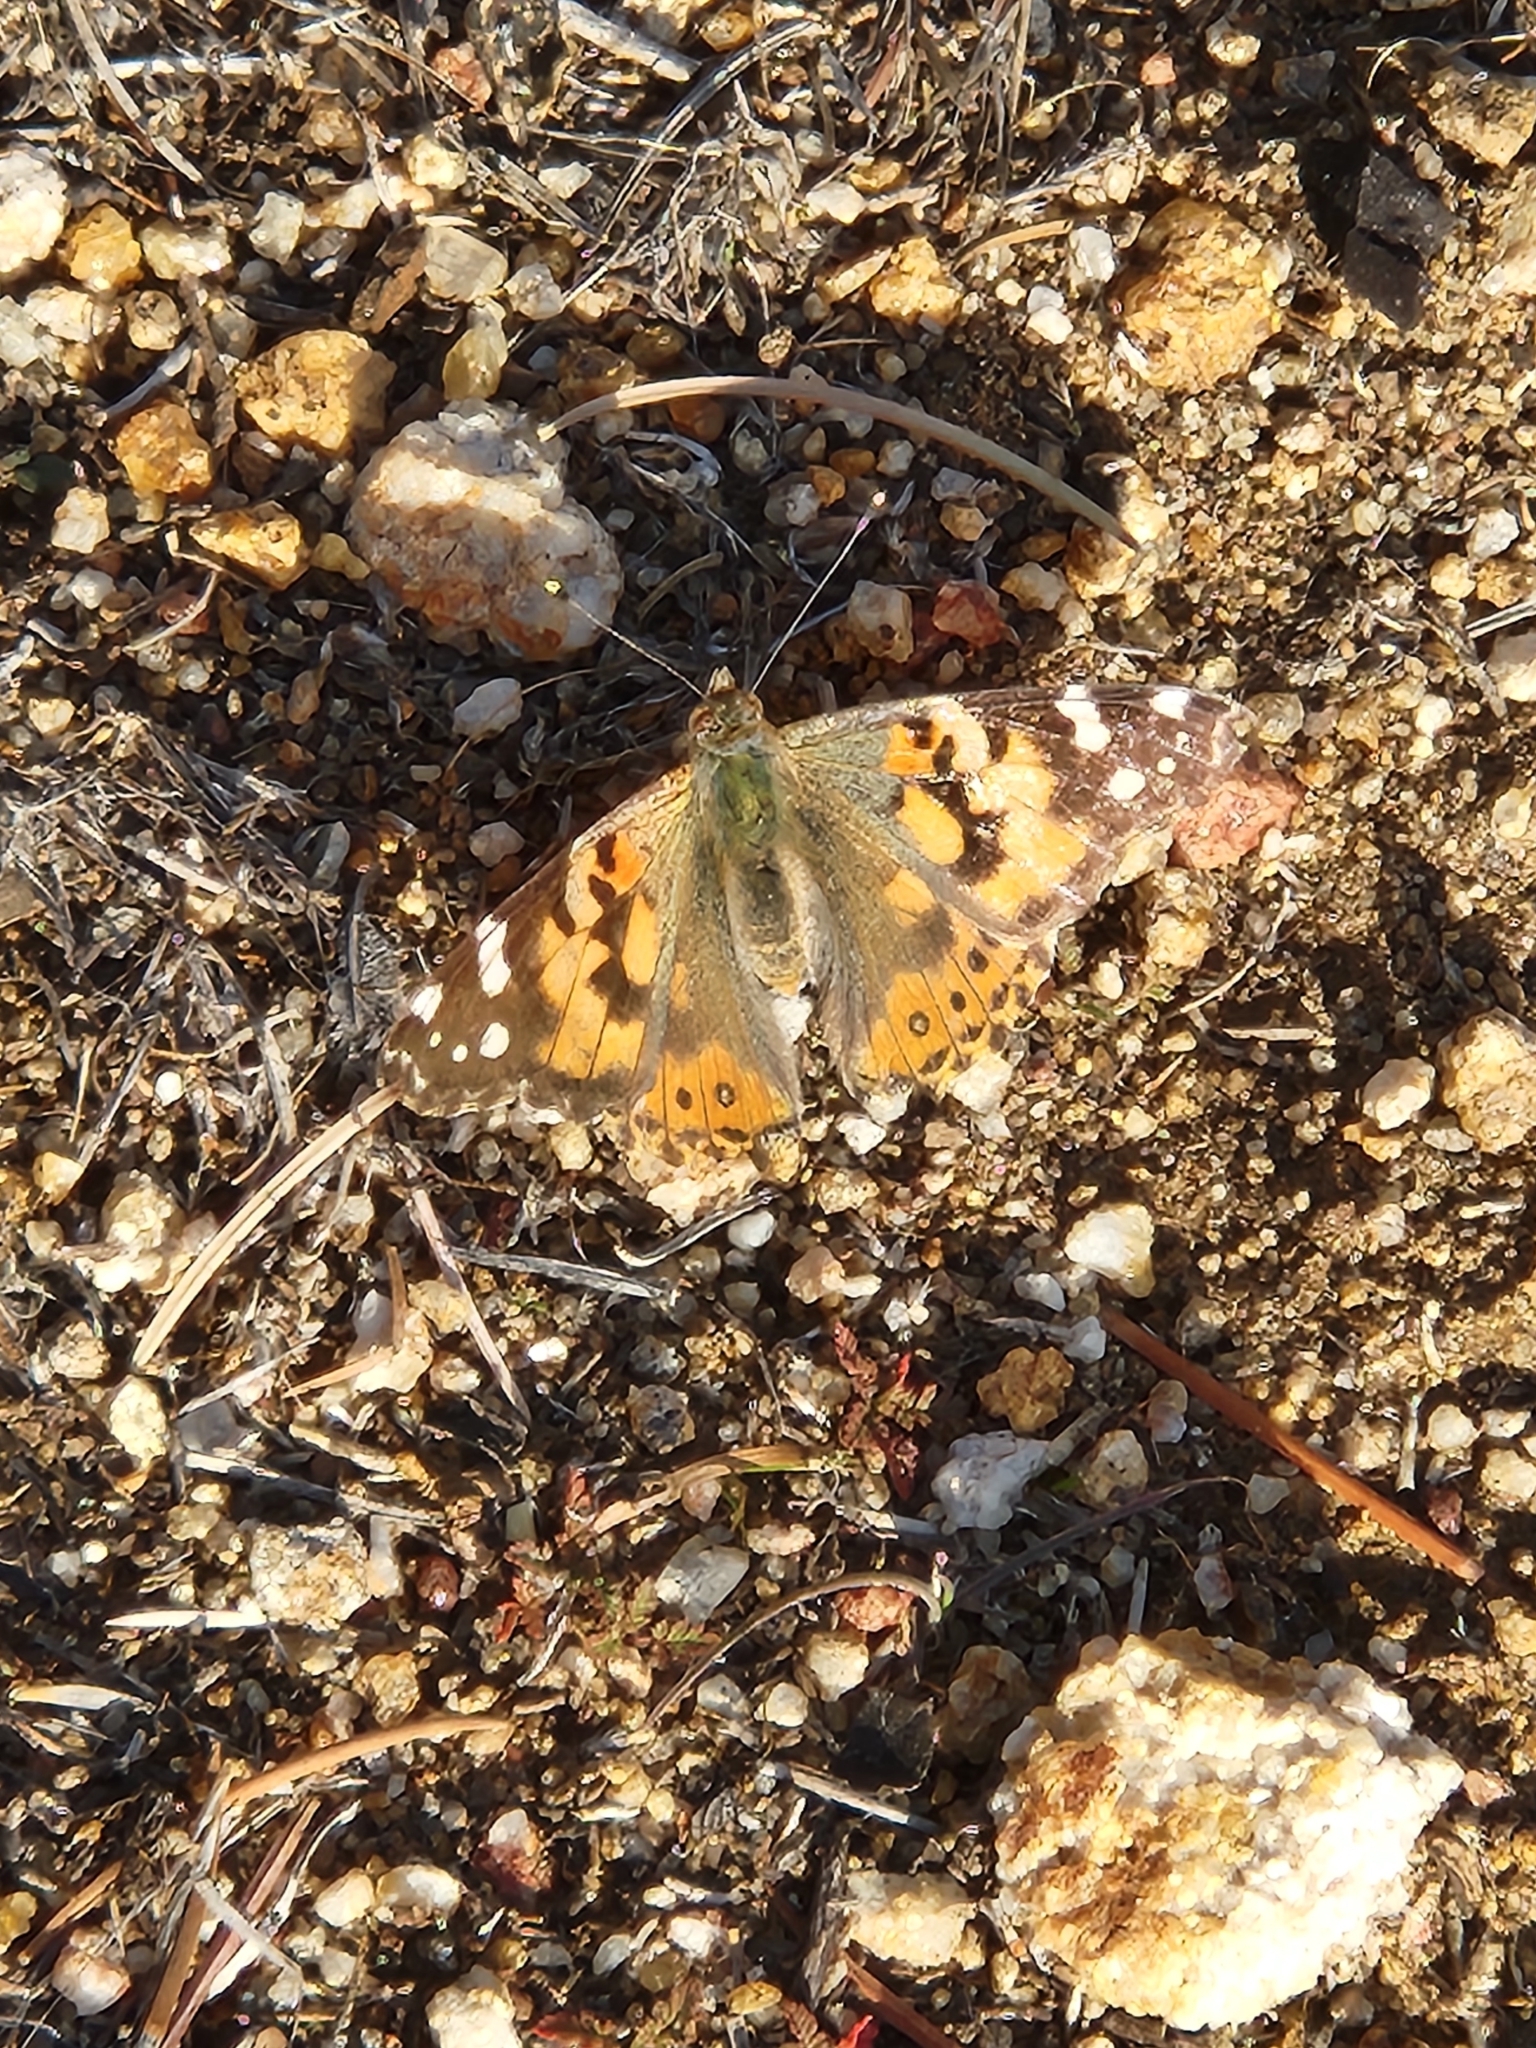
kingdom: Animalia
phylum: Arthropoda
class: Insecta
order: Lepidoptera
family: Nymphalidae
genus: Vanessa
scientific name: Vanessa cardui
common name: Painted lady
